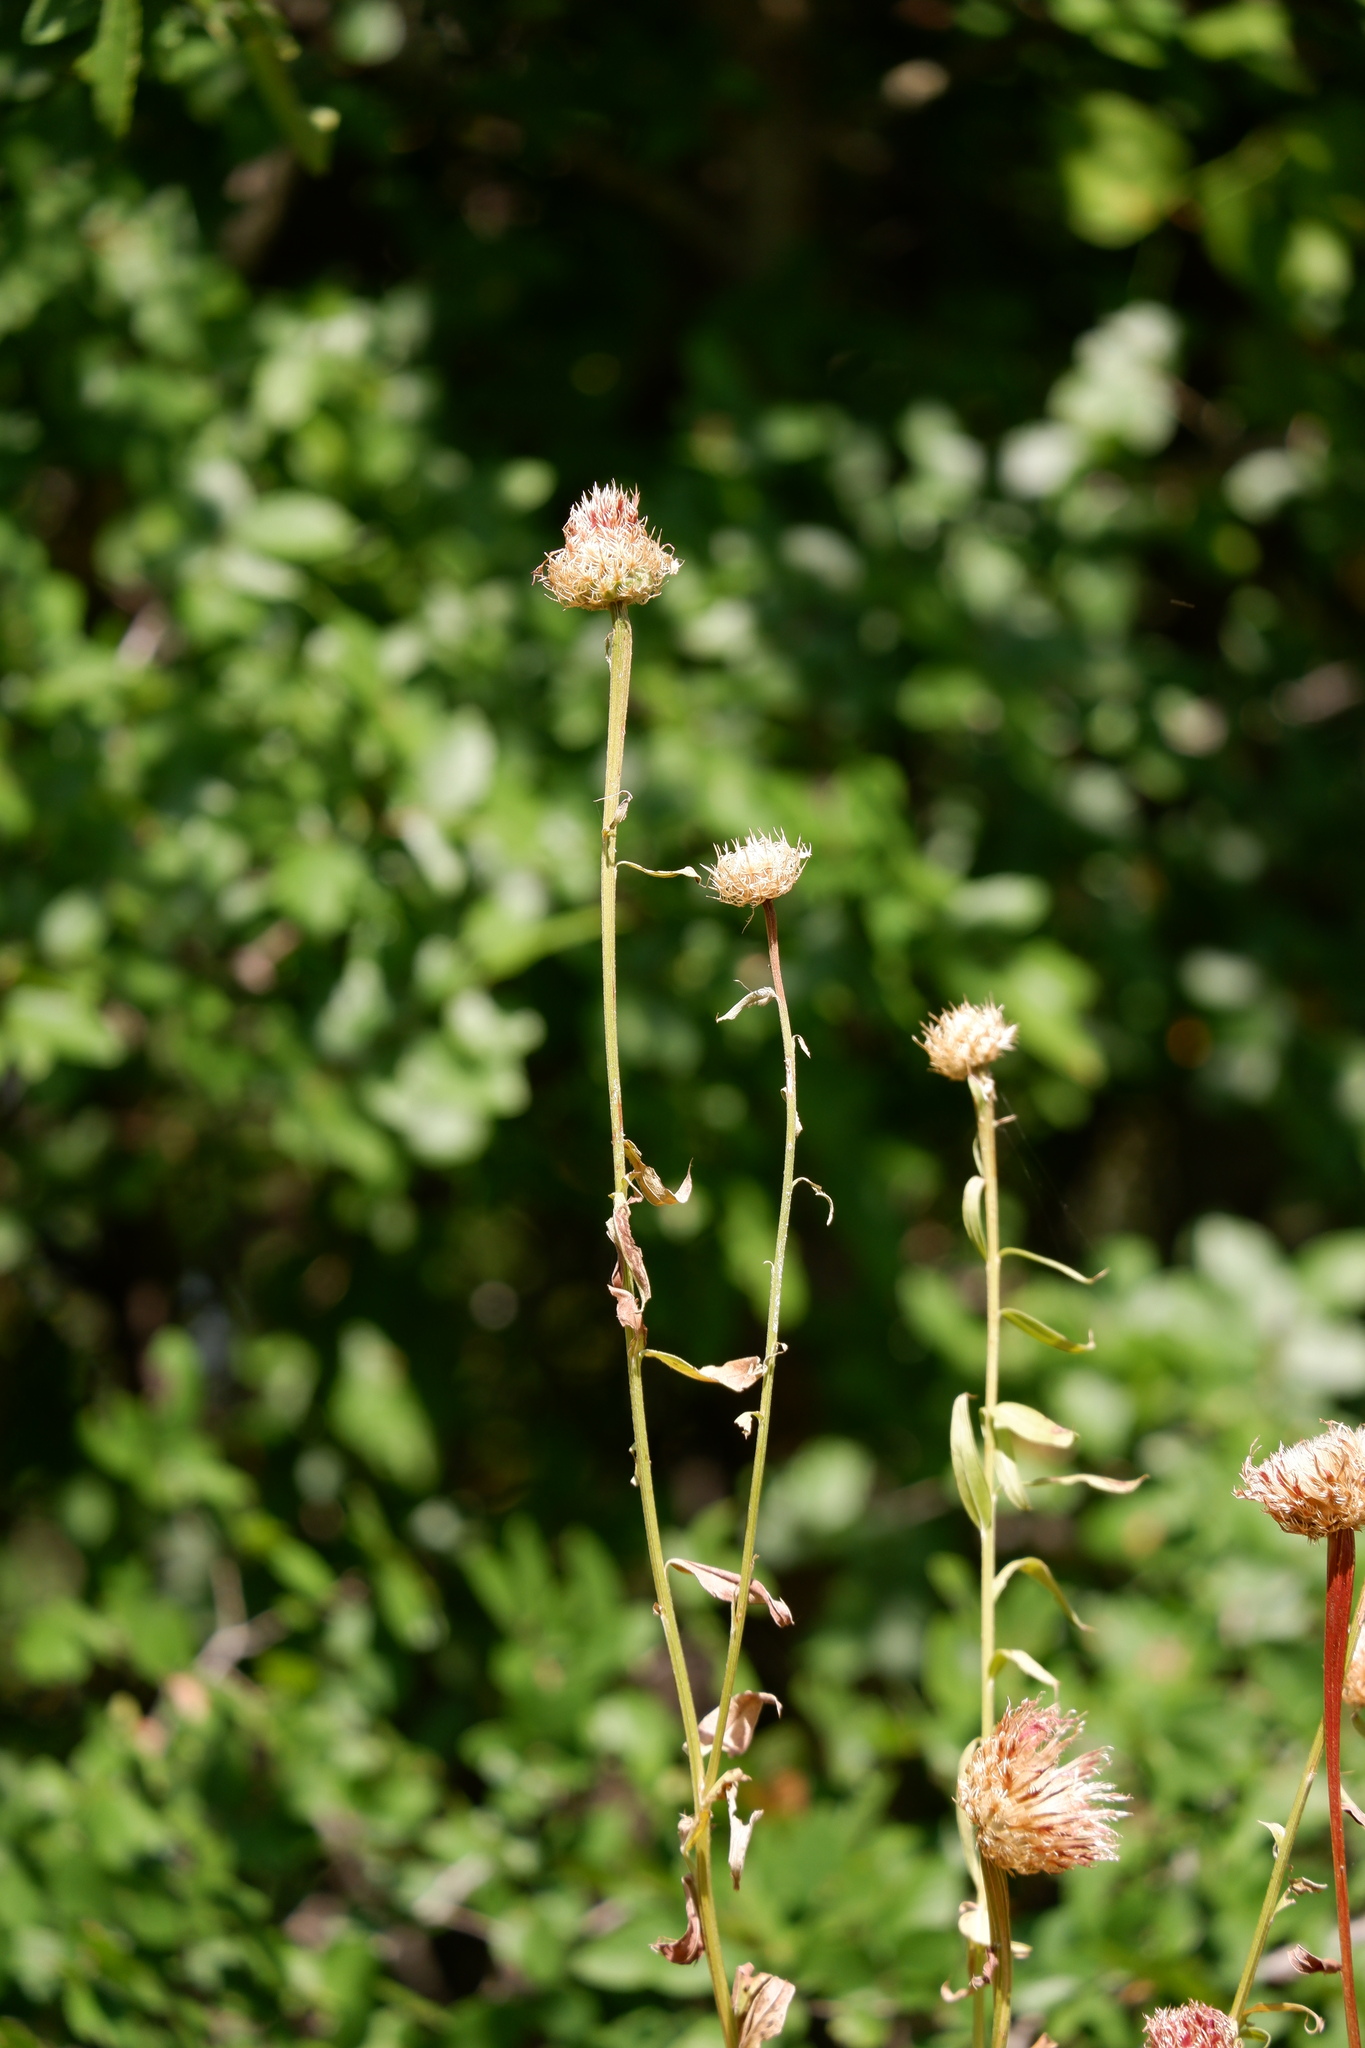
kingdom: Plantae
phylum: Tracheophyta
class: Magnoliopsida
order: Asterales
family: Asteraceae
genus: Plectocephalus
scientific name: Plectocephalus americanus
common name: American basket-flower
